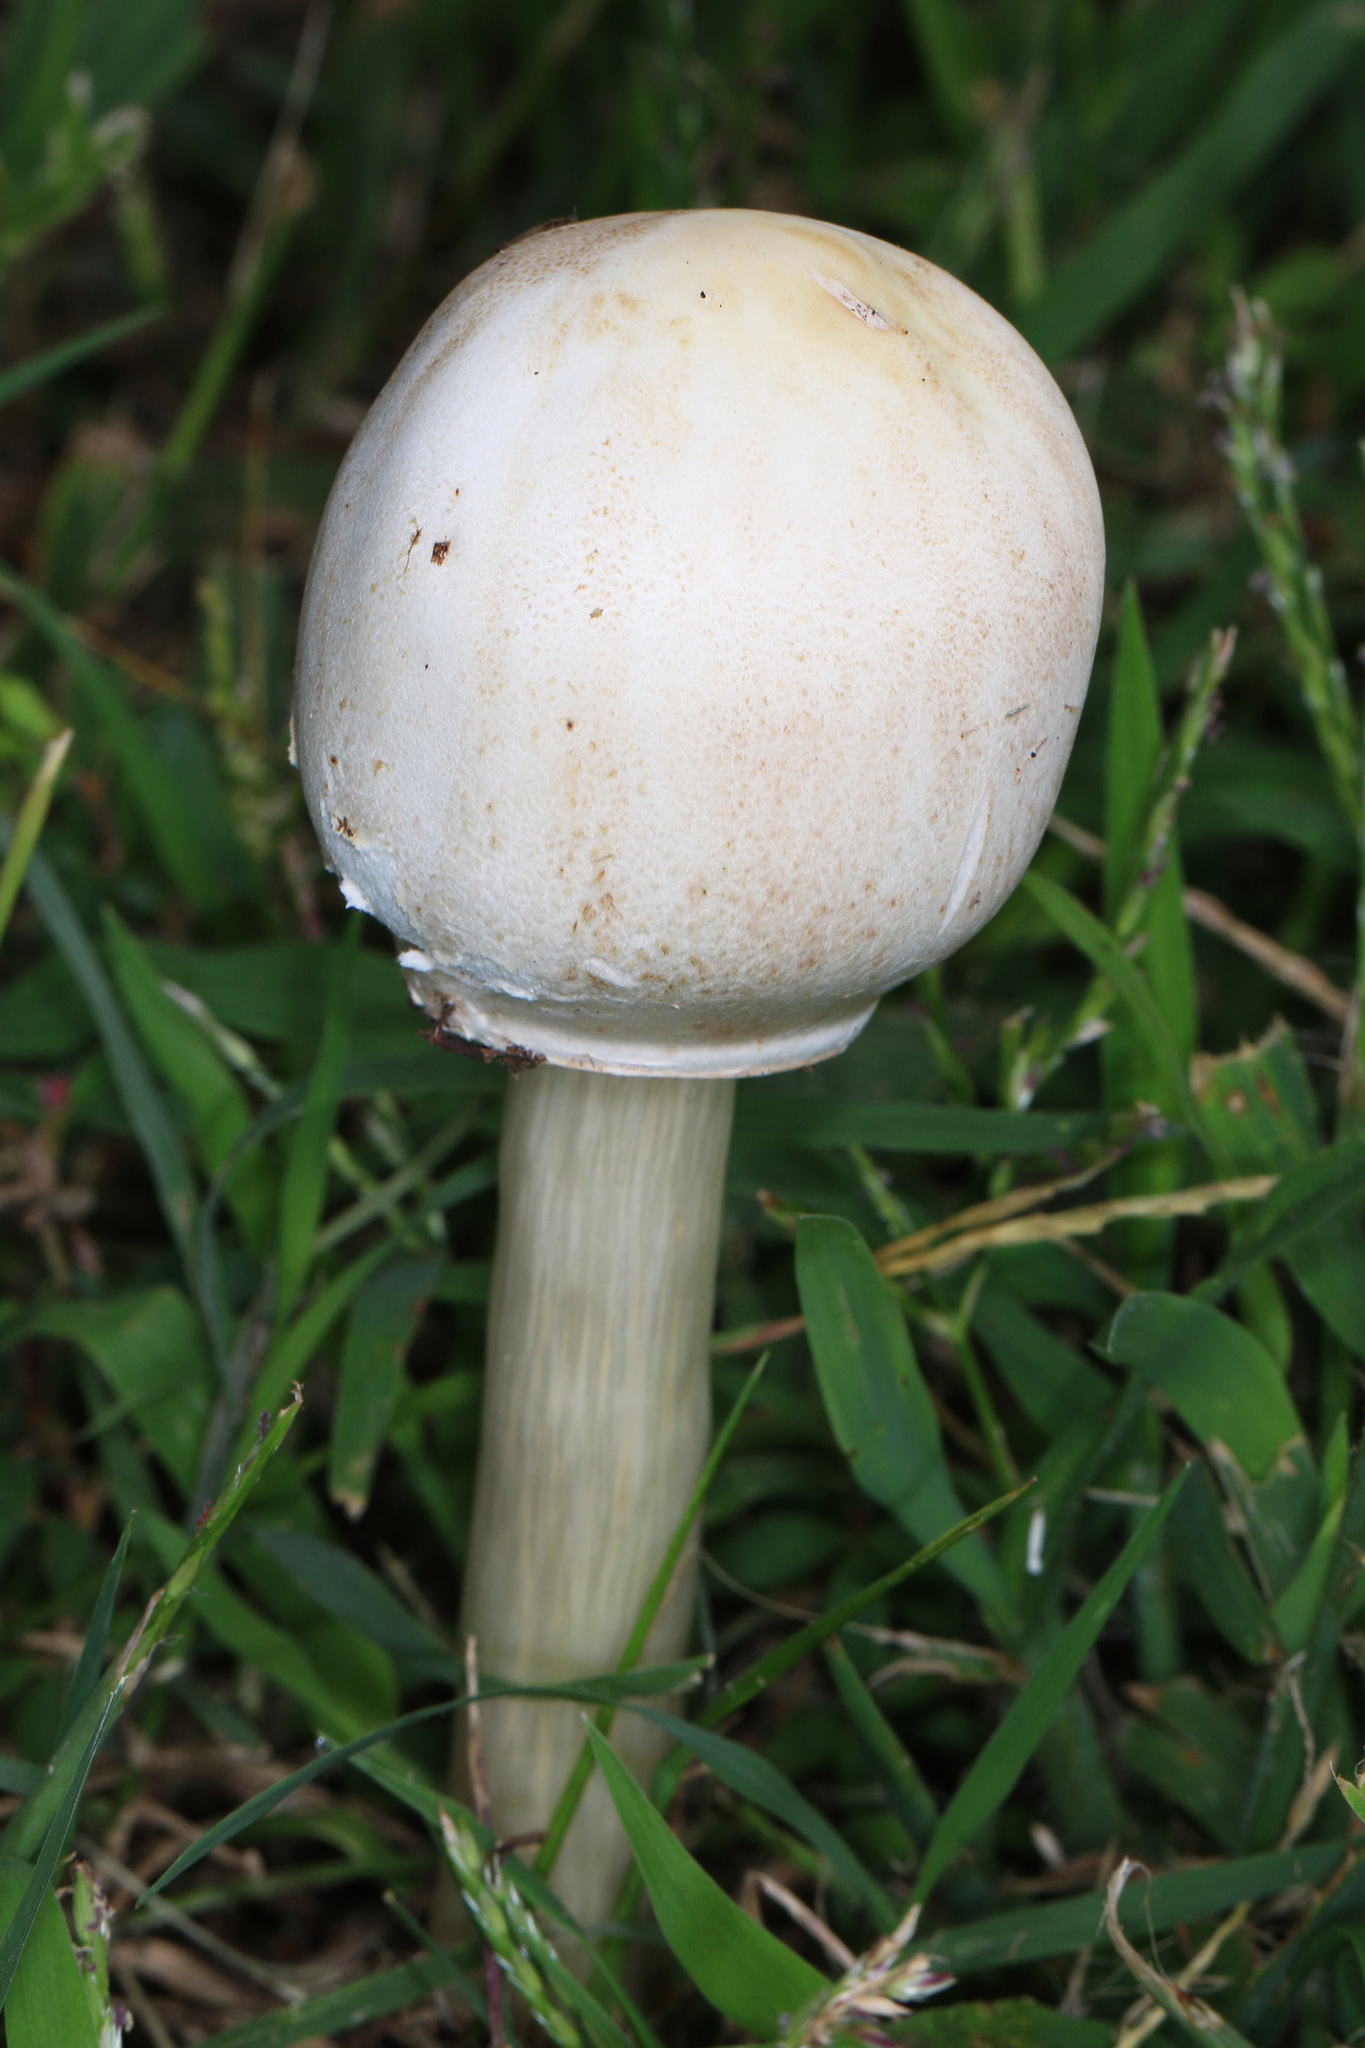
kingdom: Fungi
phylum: Basidiomycota
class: Agaricomycetes
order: Agaricales
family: Agaricaceae
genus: Chlorophyllum
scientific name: Chlorophyllum molybdites
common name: False parasol
